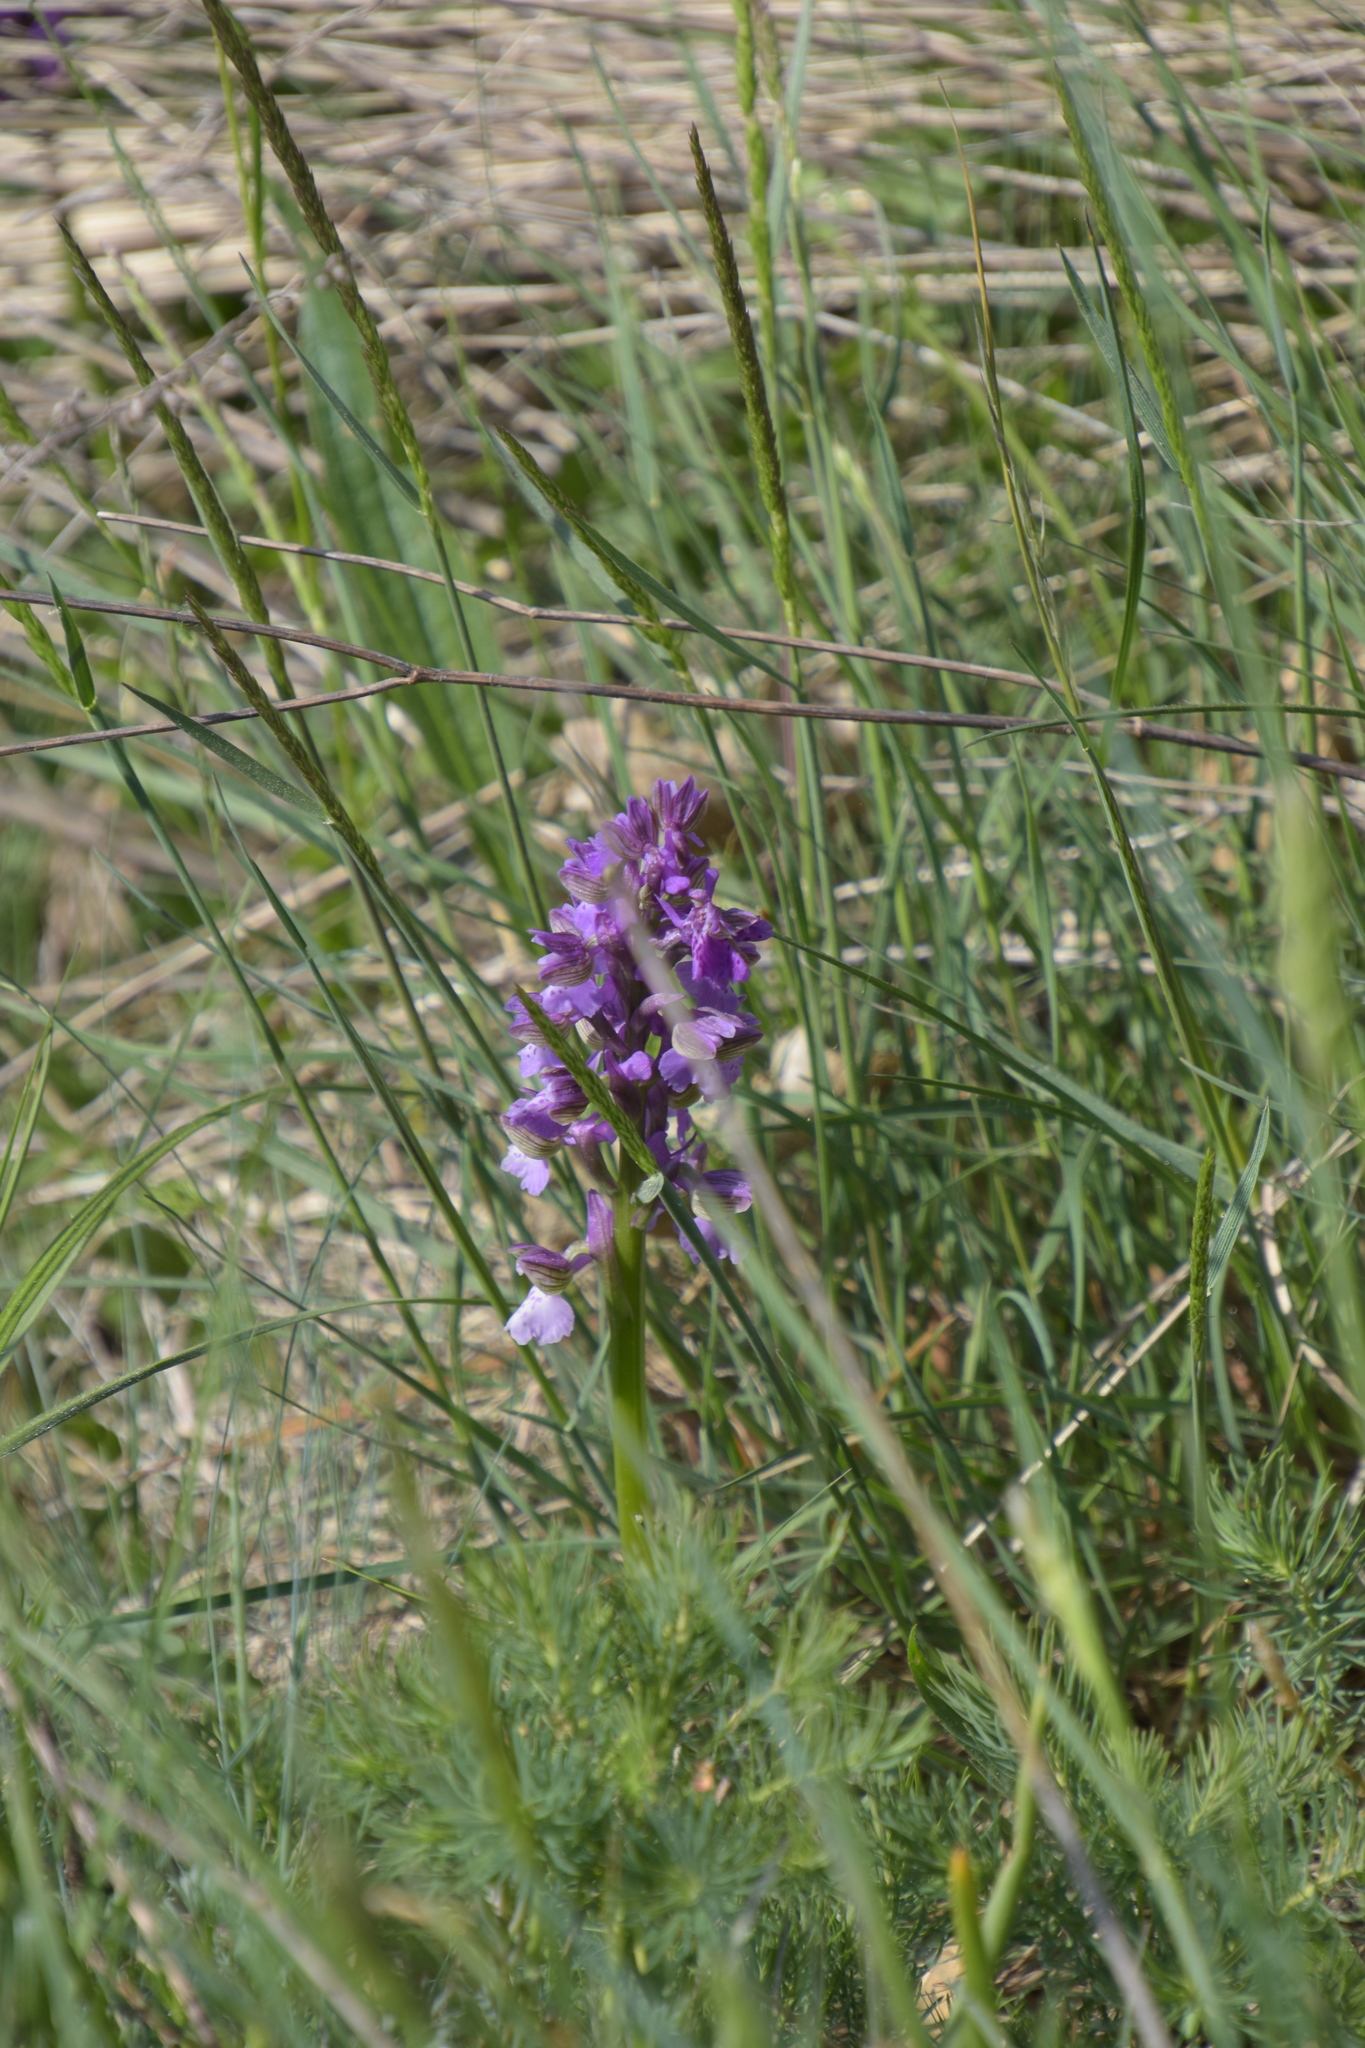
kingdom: Plantae
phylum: Tracheophyta
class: Liliopsida
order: Asparagales
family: Orchidaceae
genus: Anacamptis
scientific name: Anacamptis morio
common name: Green-winged orchid
